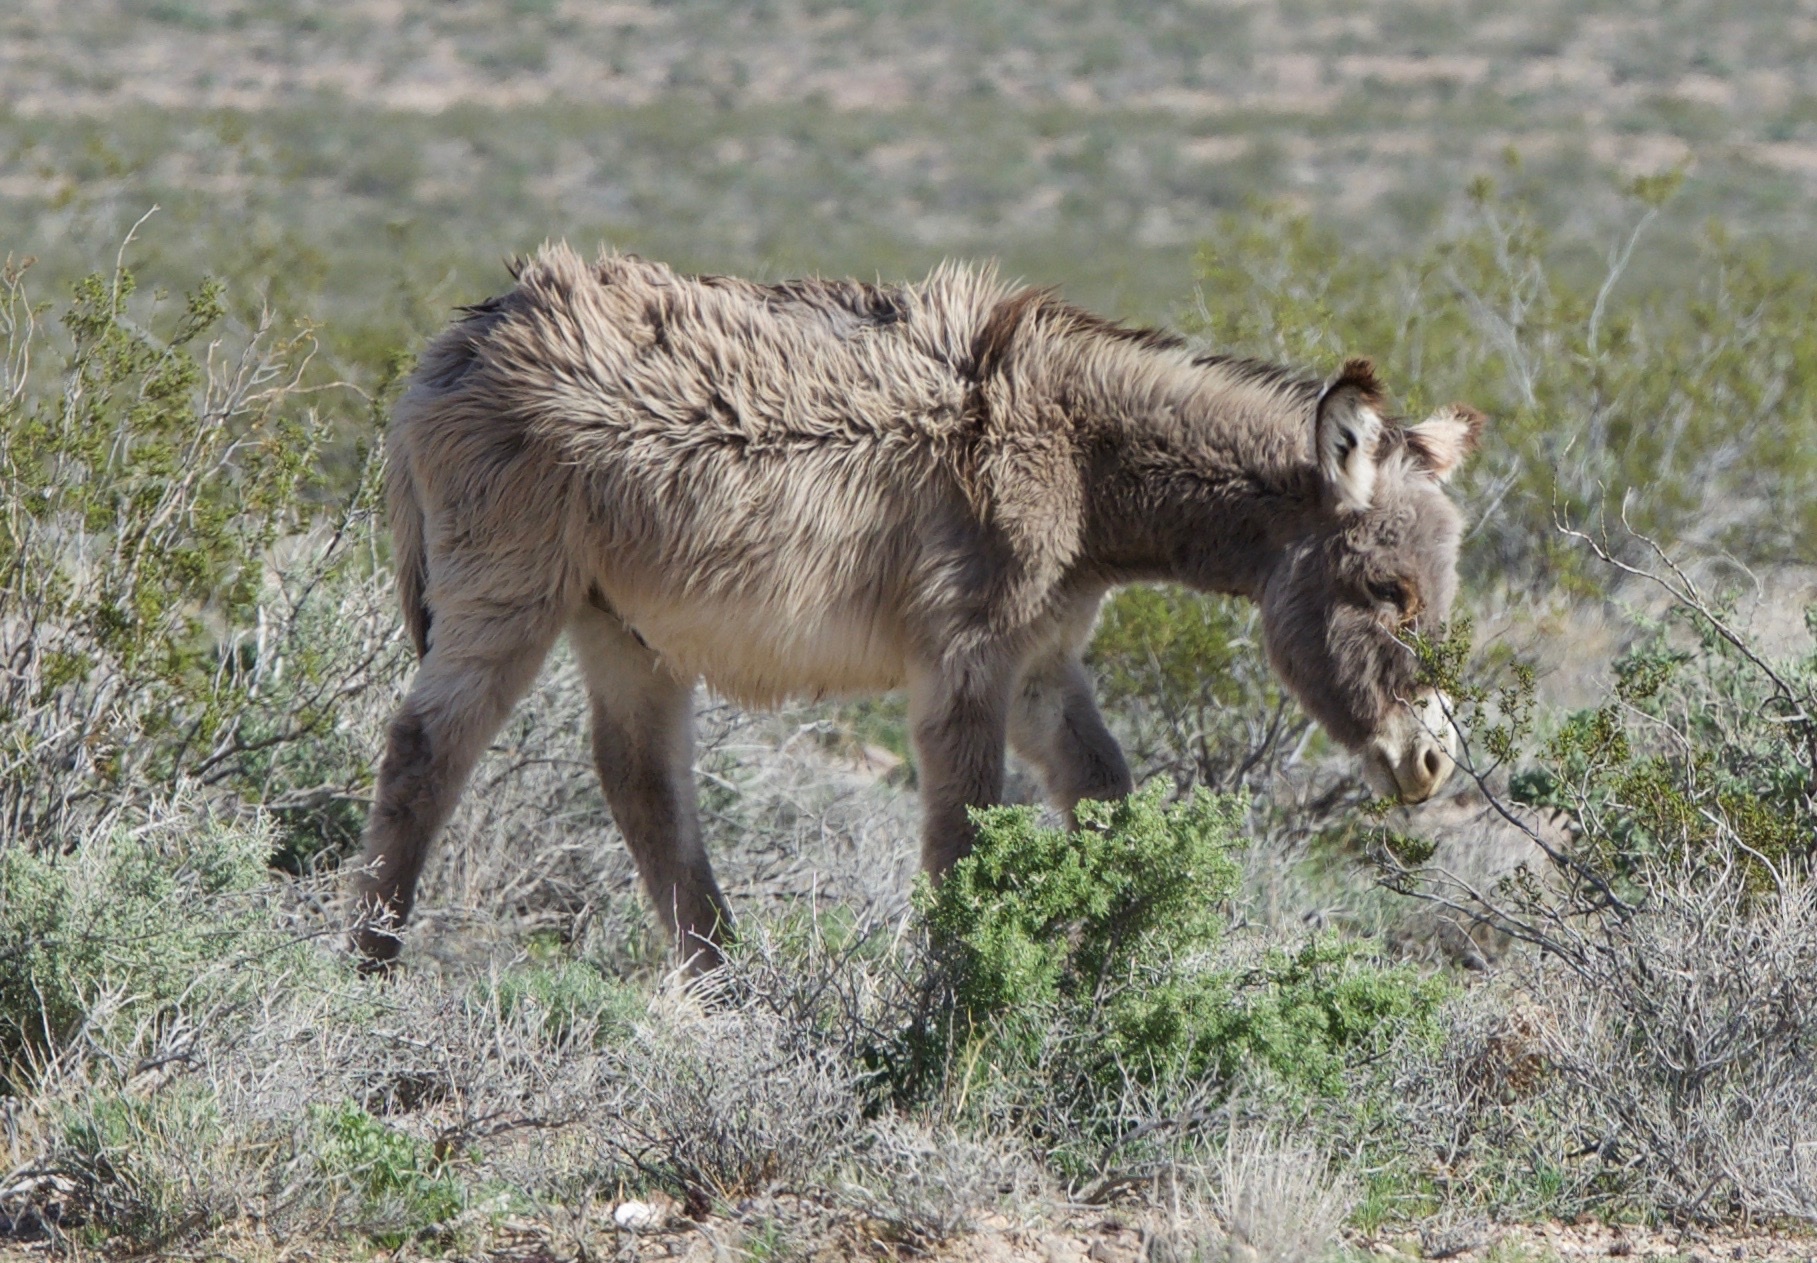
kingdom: Animalia
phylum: Chordata
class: Mammalia
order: Perissodactyla
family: Equidae
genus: Equus
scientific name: Equus asinus
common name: Ass
